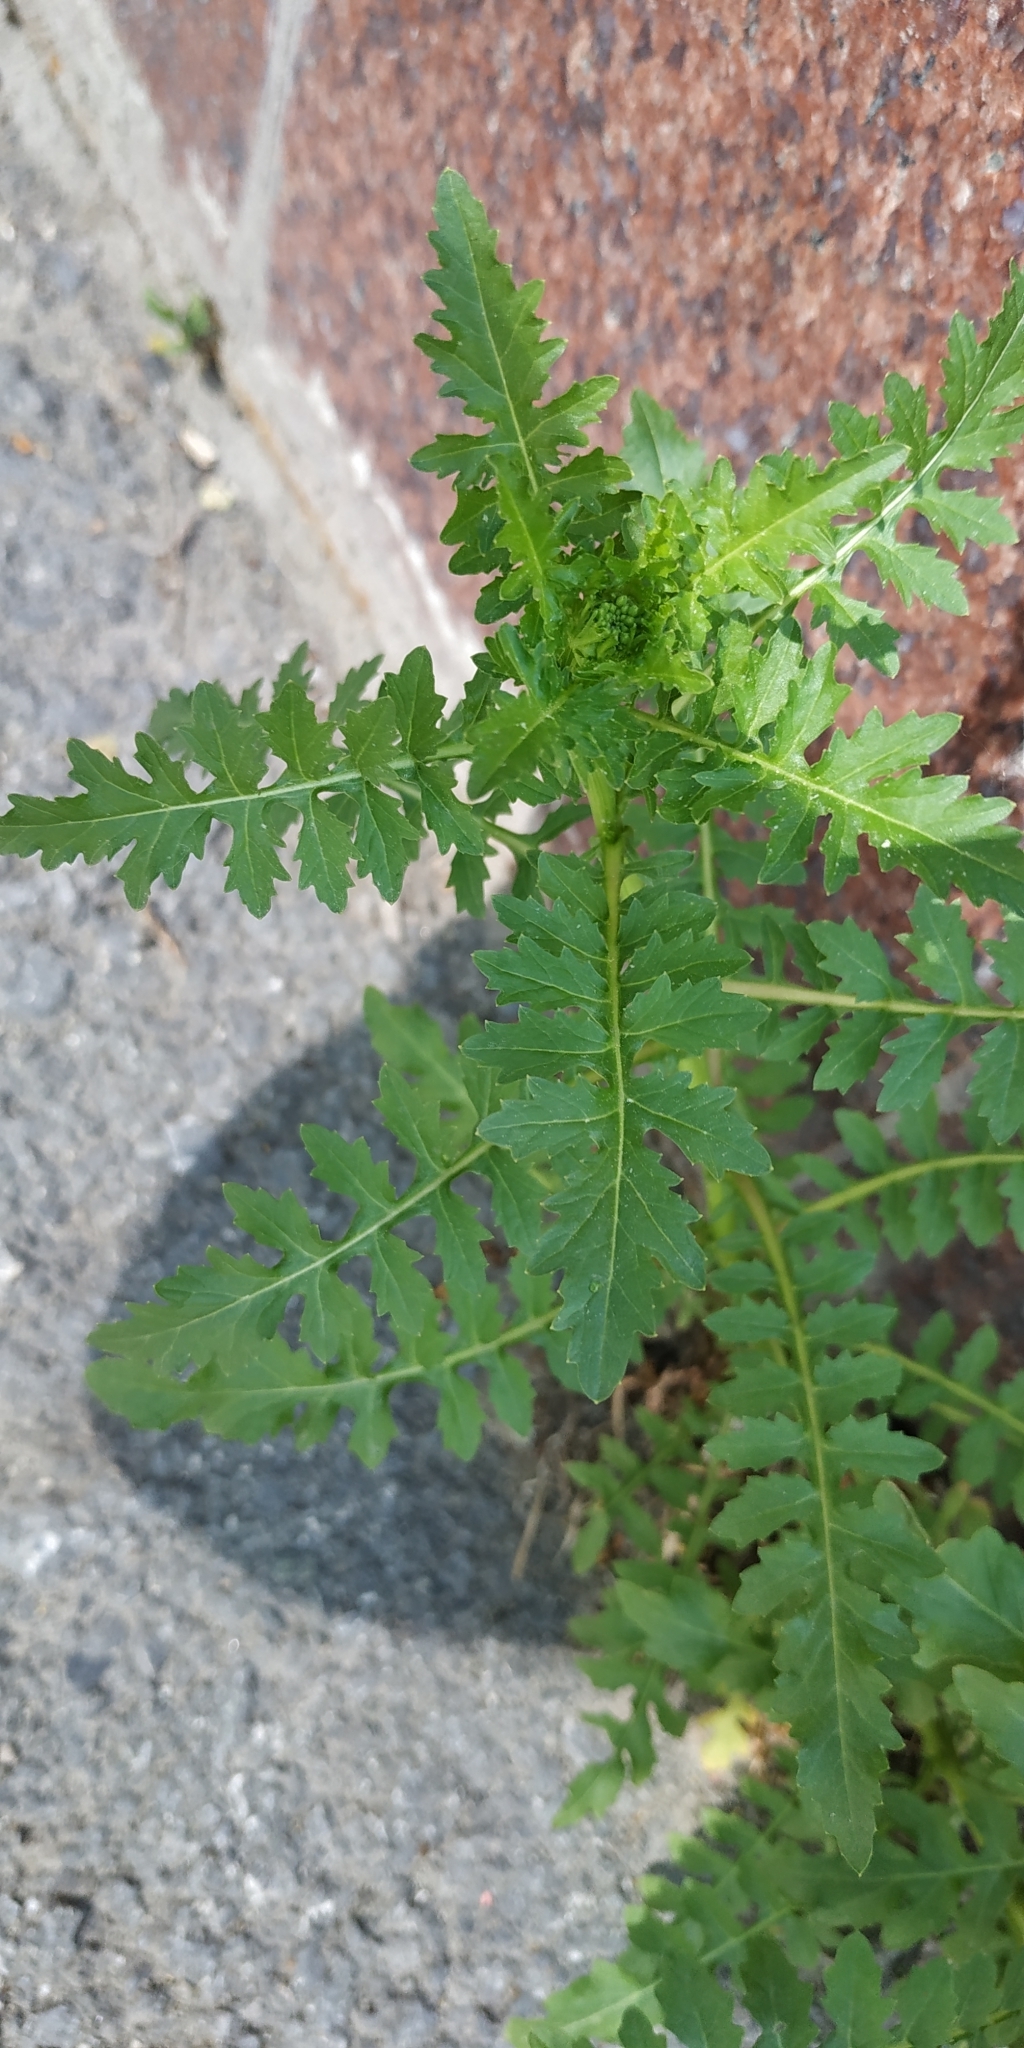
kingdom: Plantae
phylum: Tracheophyta
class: Magnoliopsida
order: Brassicales
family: Brassicaceae
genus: Rorippa
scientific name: Rorippa palustris
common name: Marsh yellow-cress
